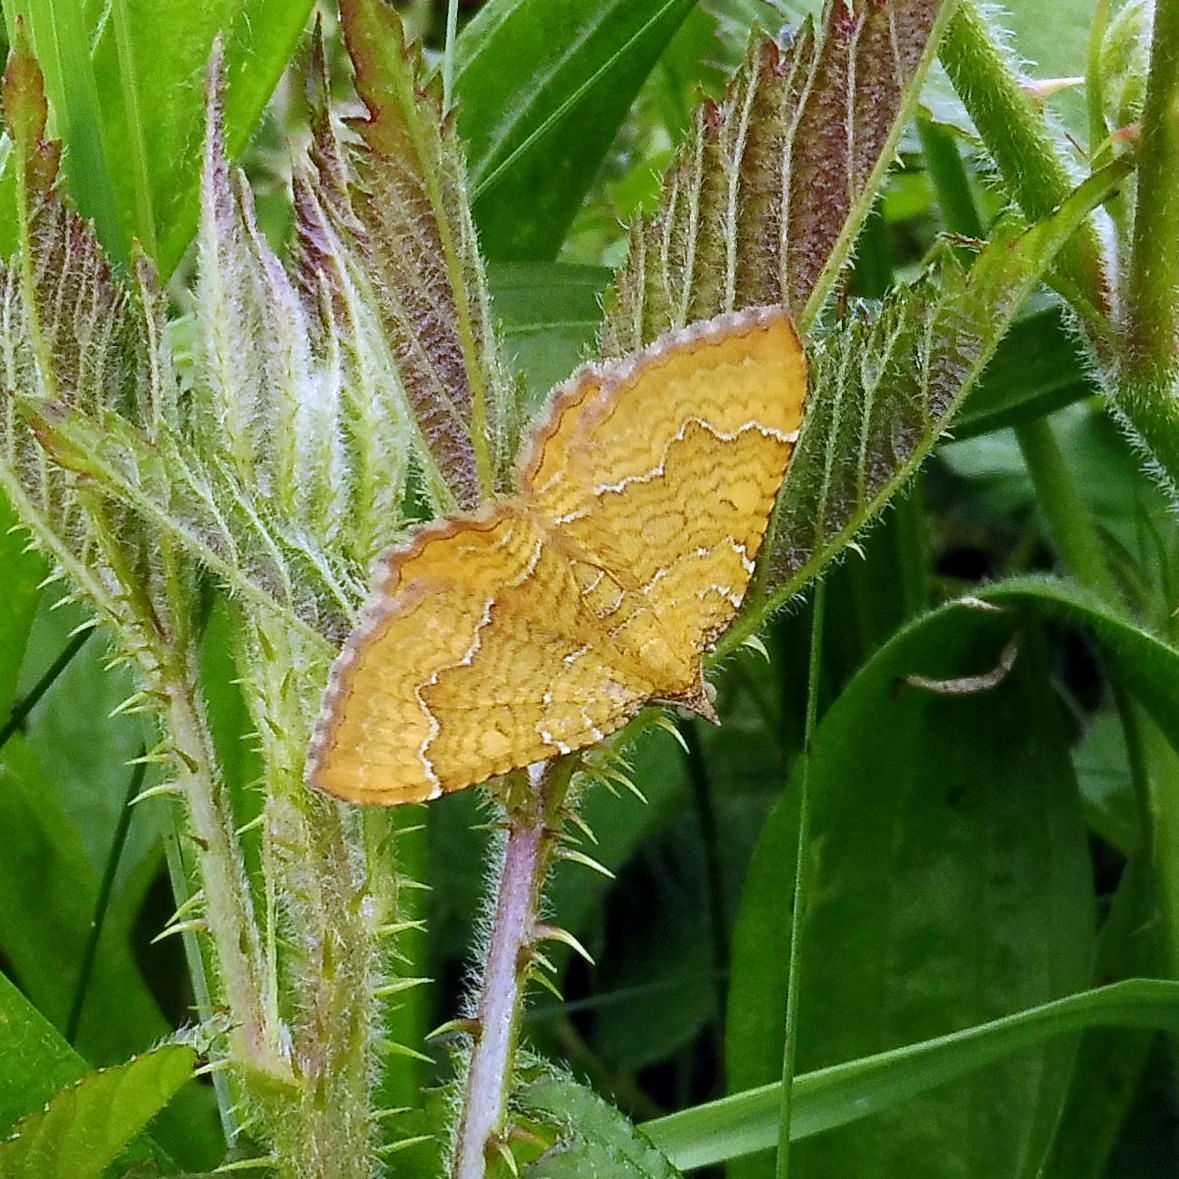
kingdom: Animalia
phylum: Arthropoda
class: Insecta
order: Lepidoptera
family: Geometridae
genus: Camptogramma
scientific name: Camptogramma bilineata
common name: Yellow shell
